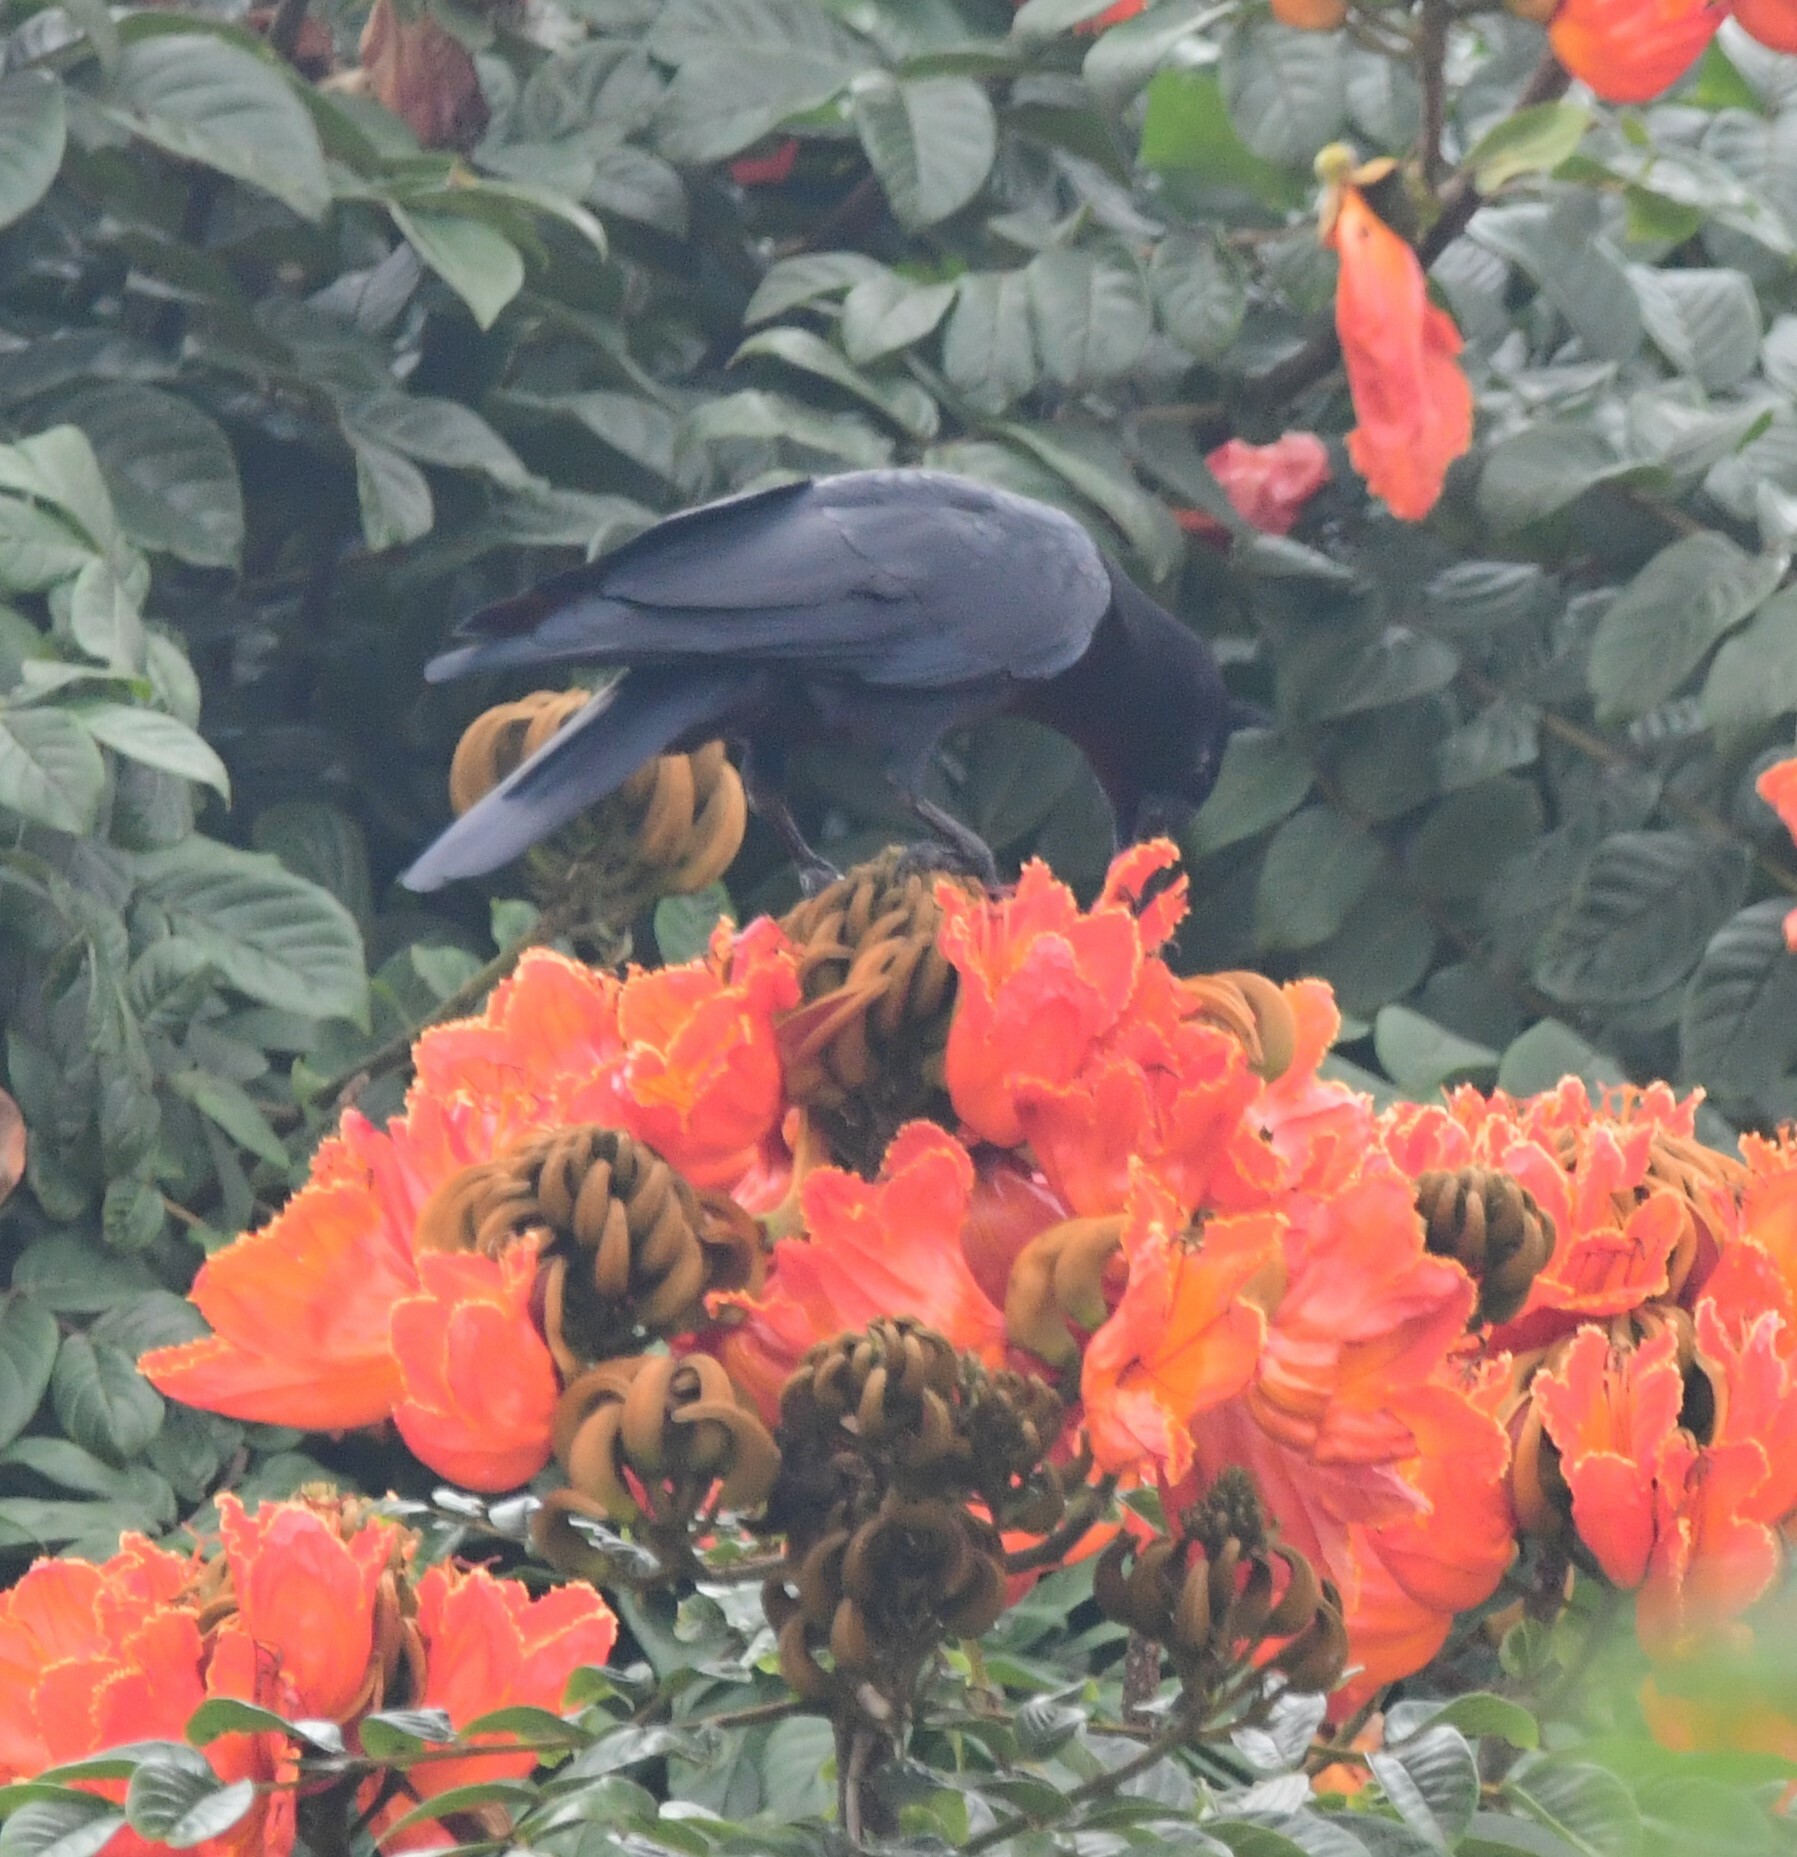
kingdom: Animalia
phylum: Chordata
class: Aves
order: Passeriformes
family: Corvidae
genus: Corvus
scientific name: Corvus macrorhynchos
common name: Large-billed crow
